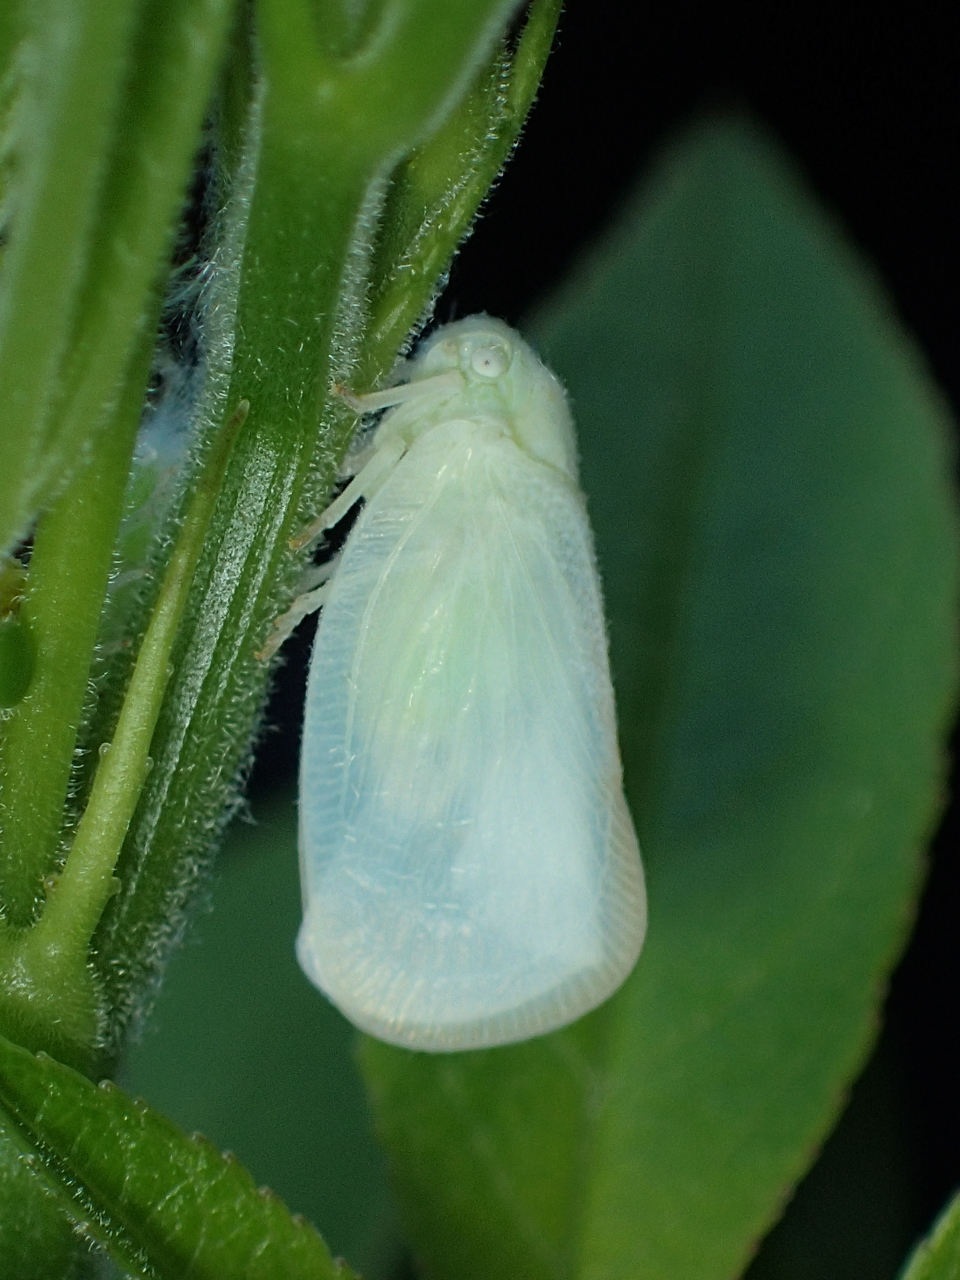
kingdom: Animalia
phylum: Arthropoda
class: Insecta
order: Hemiptera
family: Flatidae
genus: Ormenoides
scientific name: Ormenoides venusta
